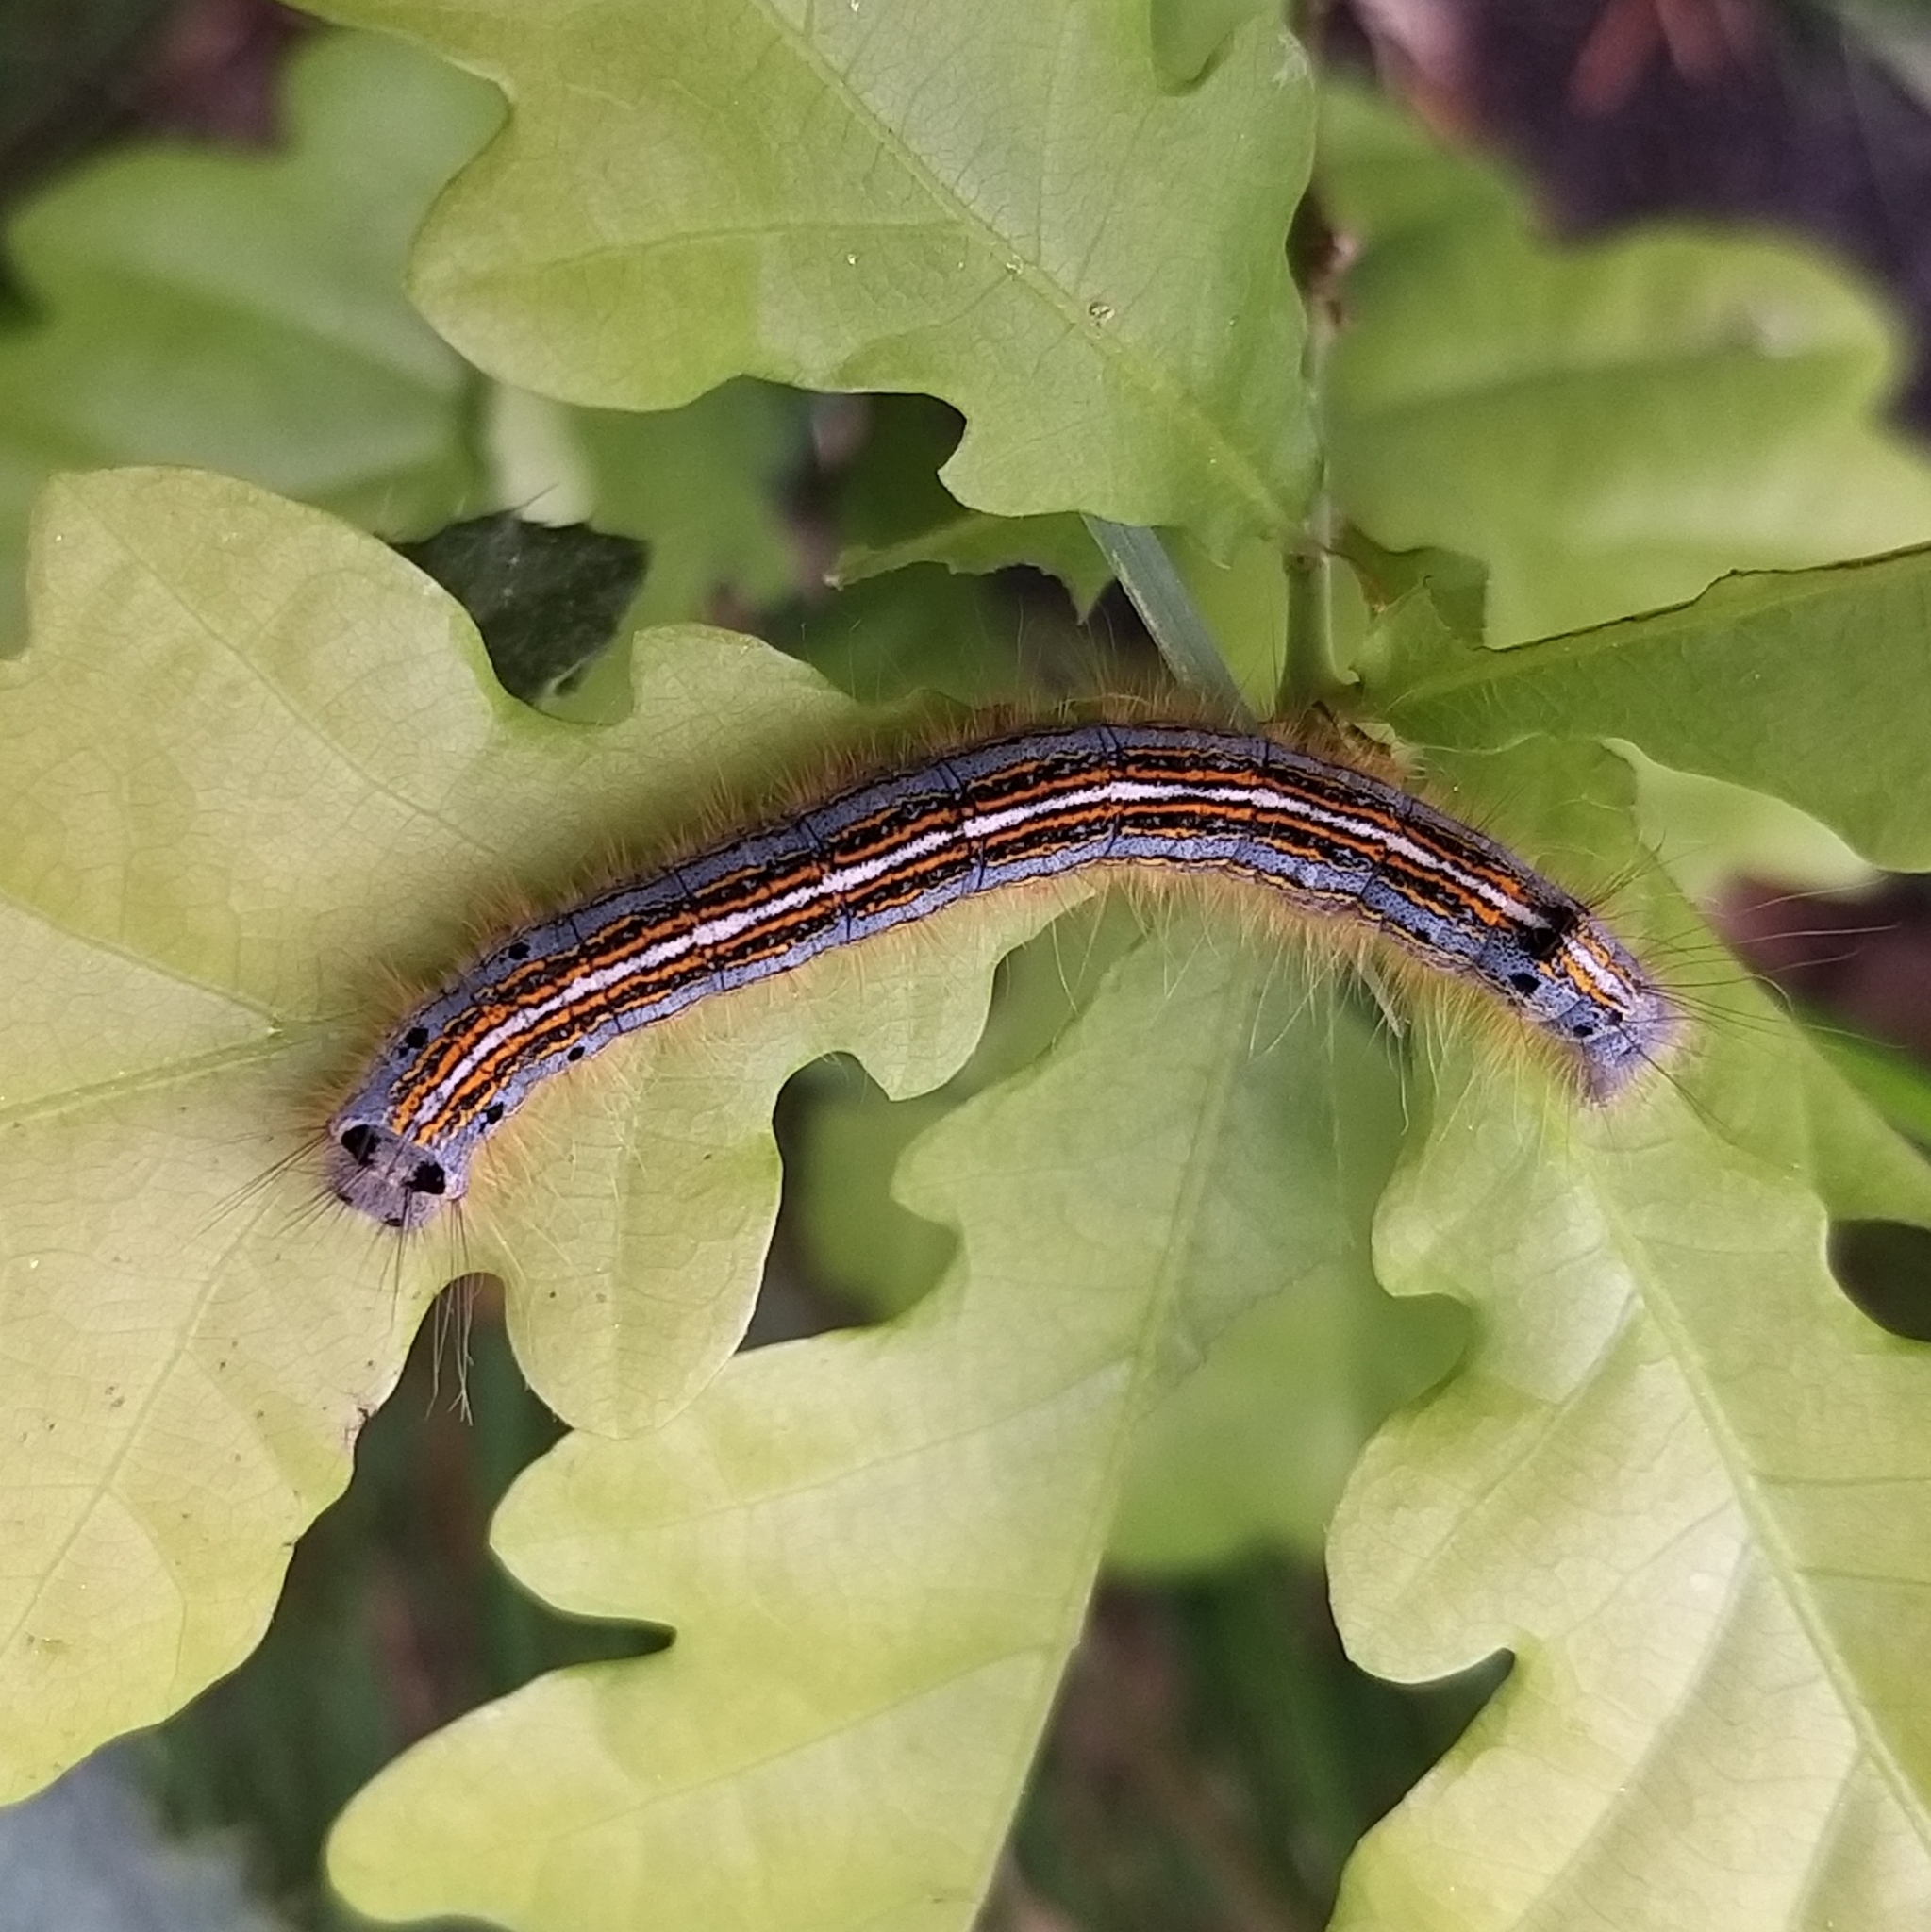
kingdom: Animalia
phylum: Arthropoda
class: Insecta
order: Lepidoptera
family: Lasiocampidae
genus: Malacosoma
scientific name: Malacosoma neustria
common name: The lackey
